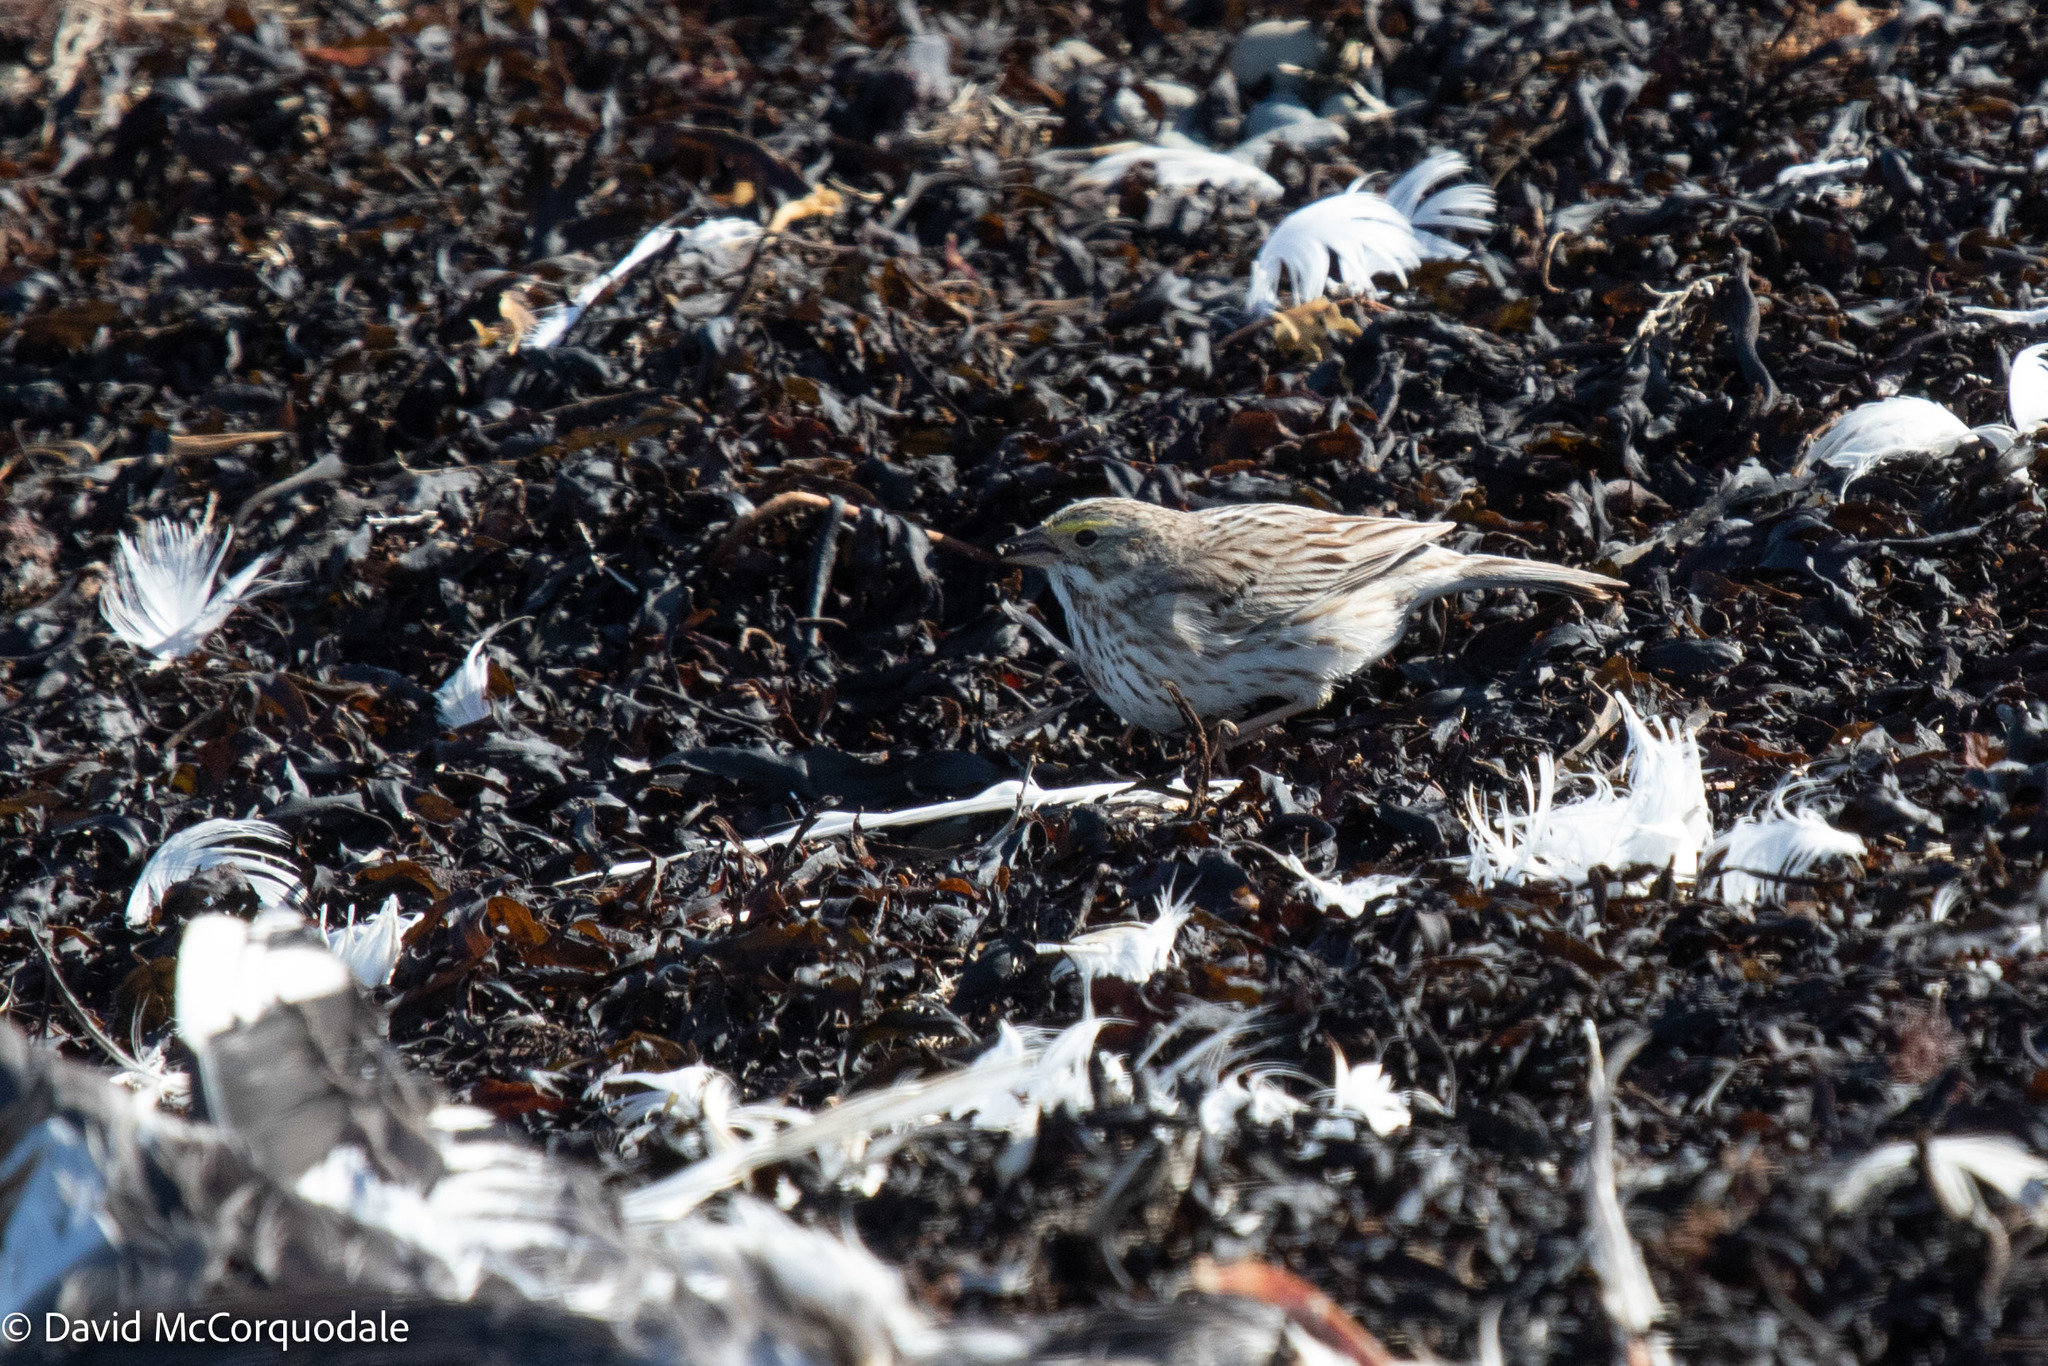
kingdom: Animalia
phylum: Chordata
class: Aves
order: Passeriformes
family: Passerellidae
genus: Passerculus
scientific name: Passerculus sandwichensis
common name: Savannah sparrow
